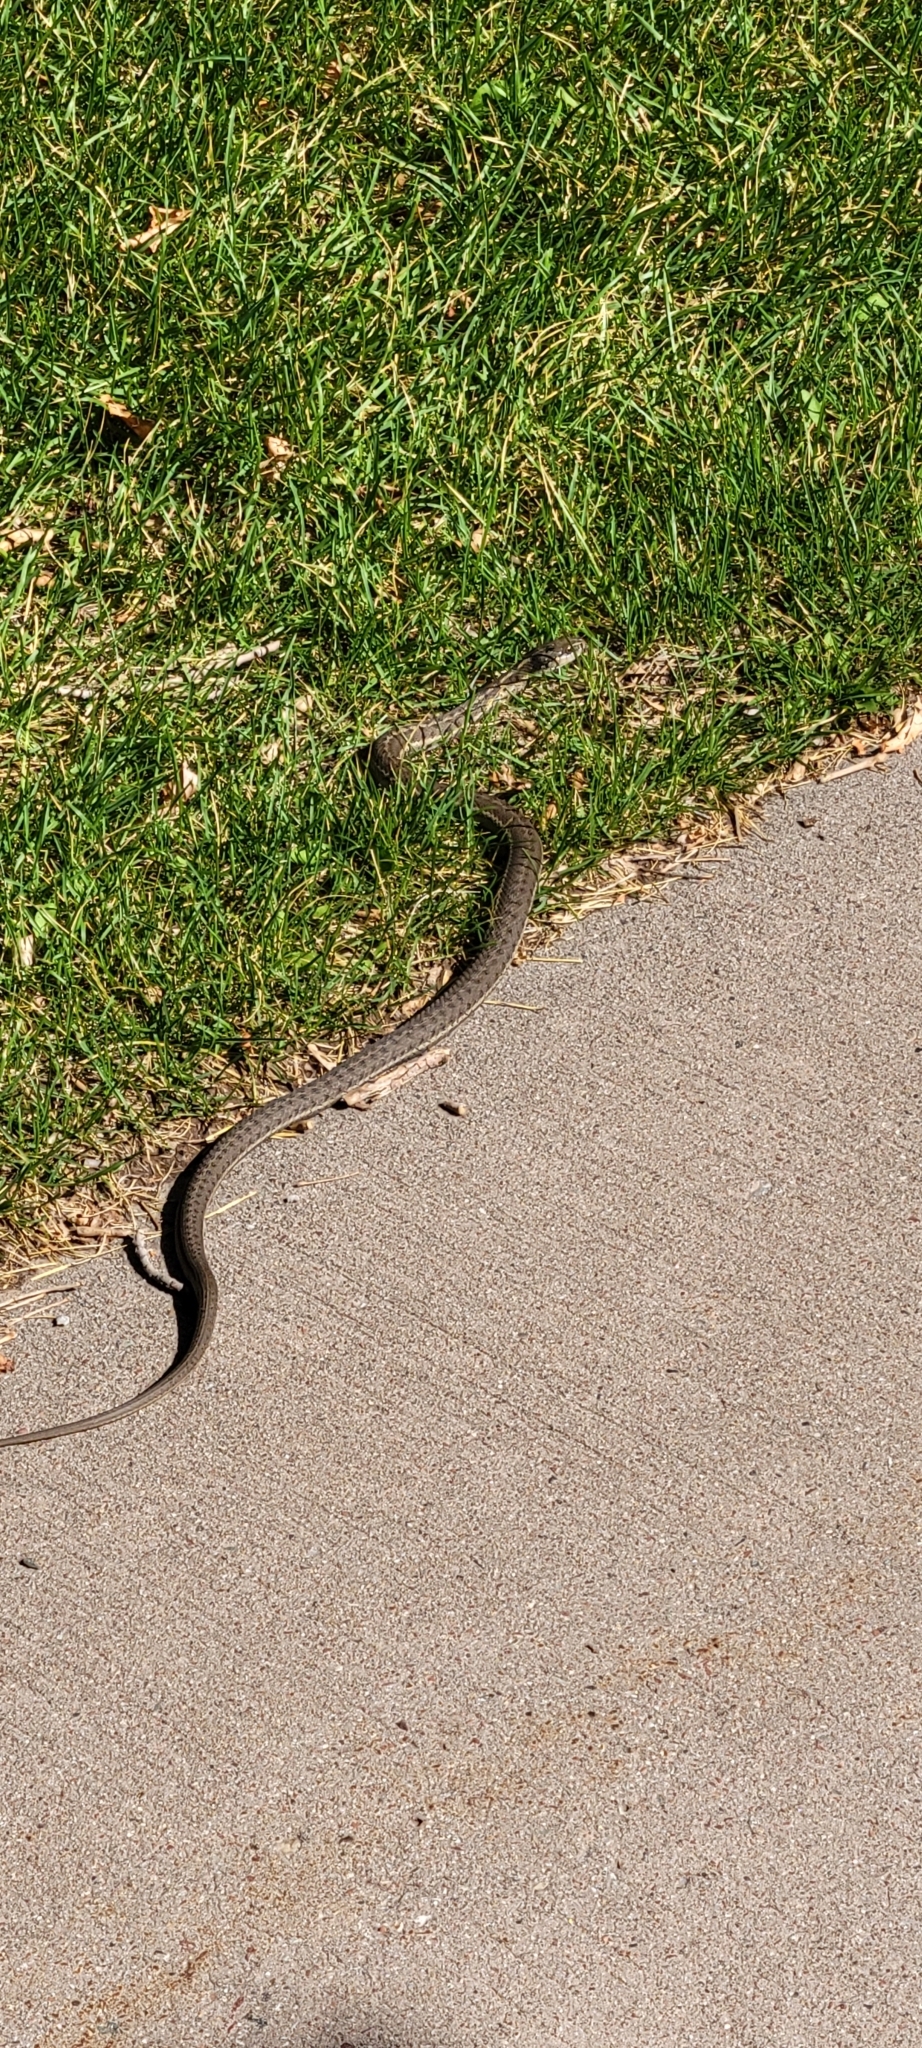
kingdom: Animalia
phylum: Chordata
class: Squamata
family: Colubridae
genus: Thamnophis
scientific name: Thamnophis elegans
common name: Western terrestrial garter snake
